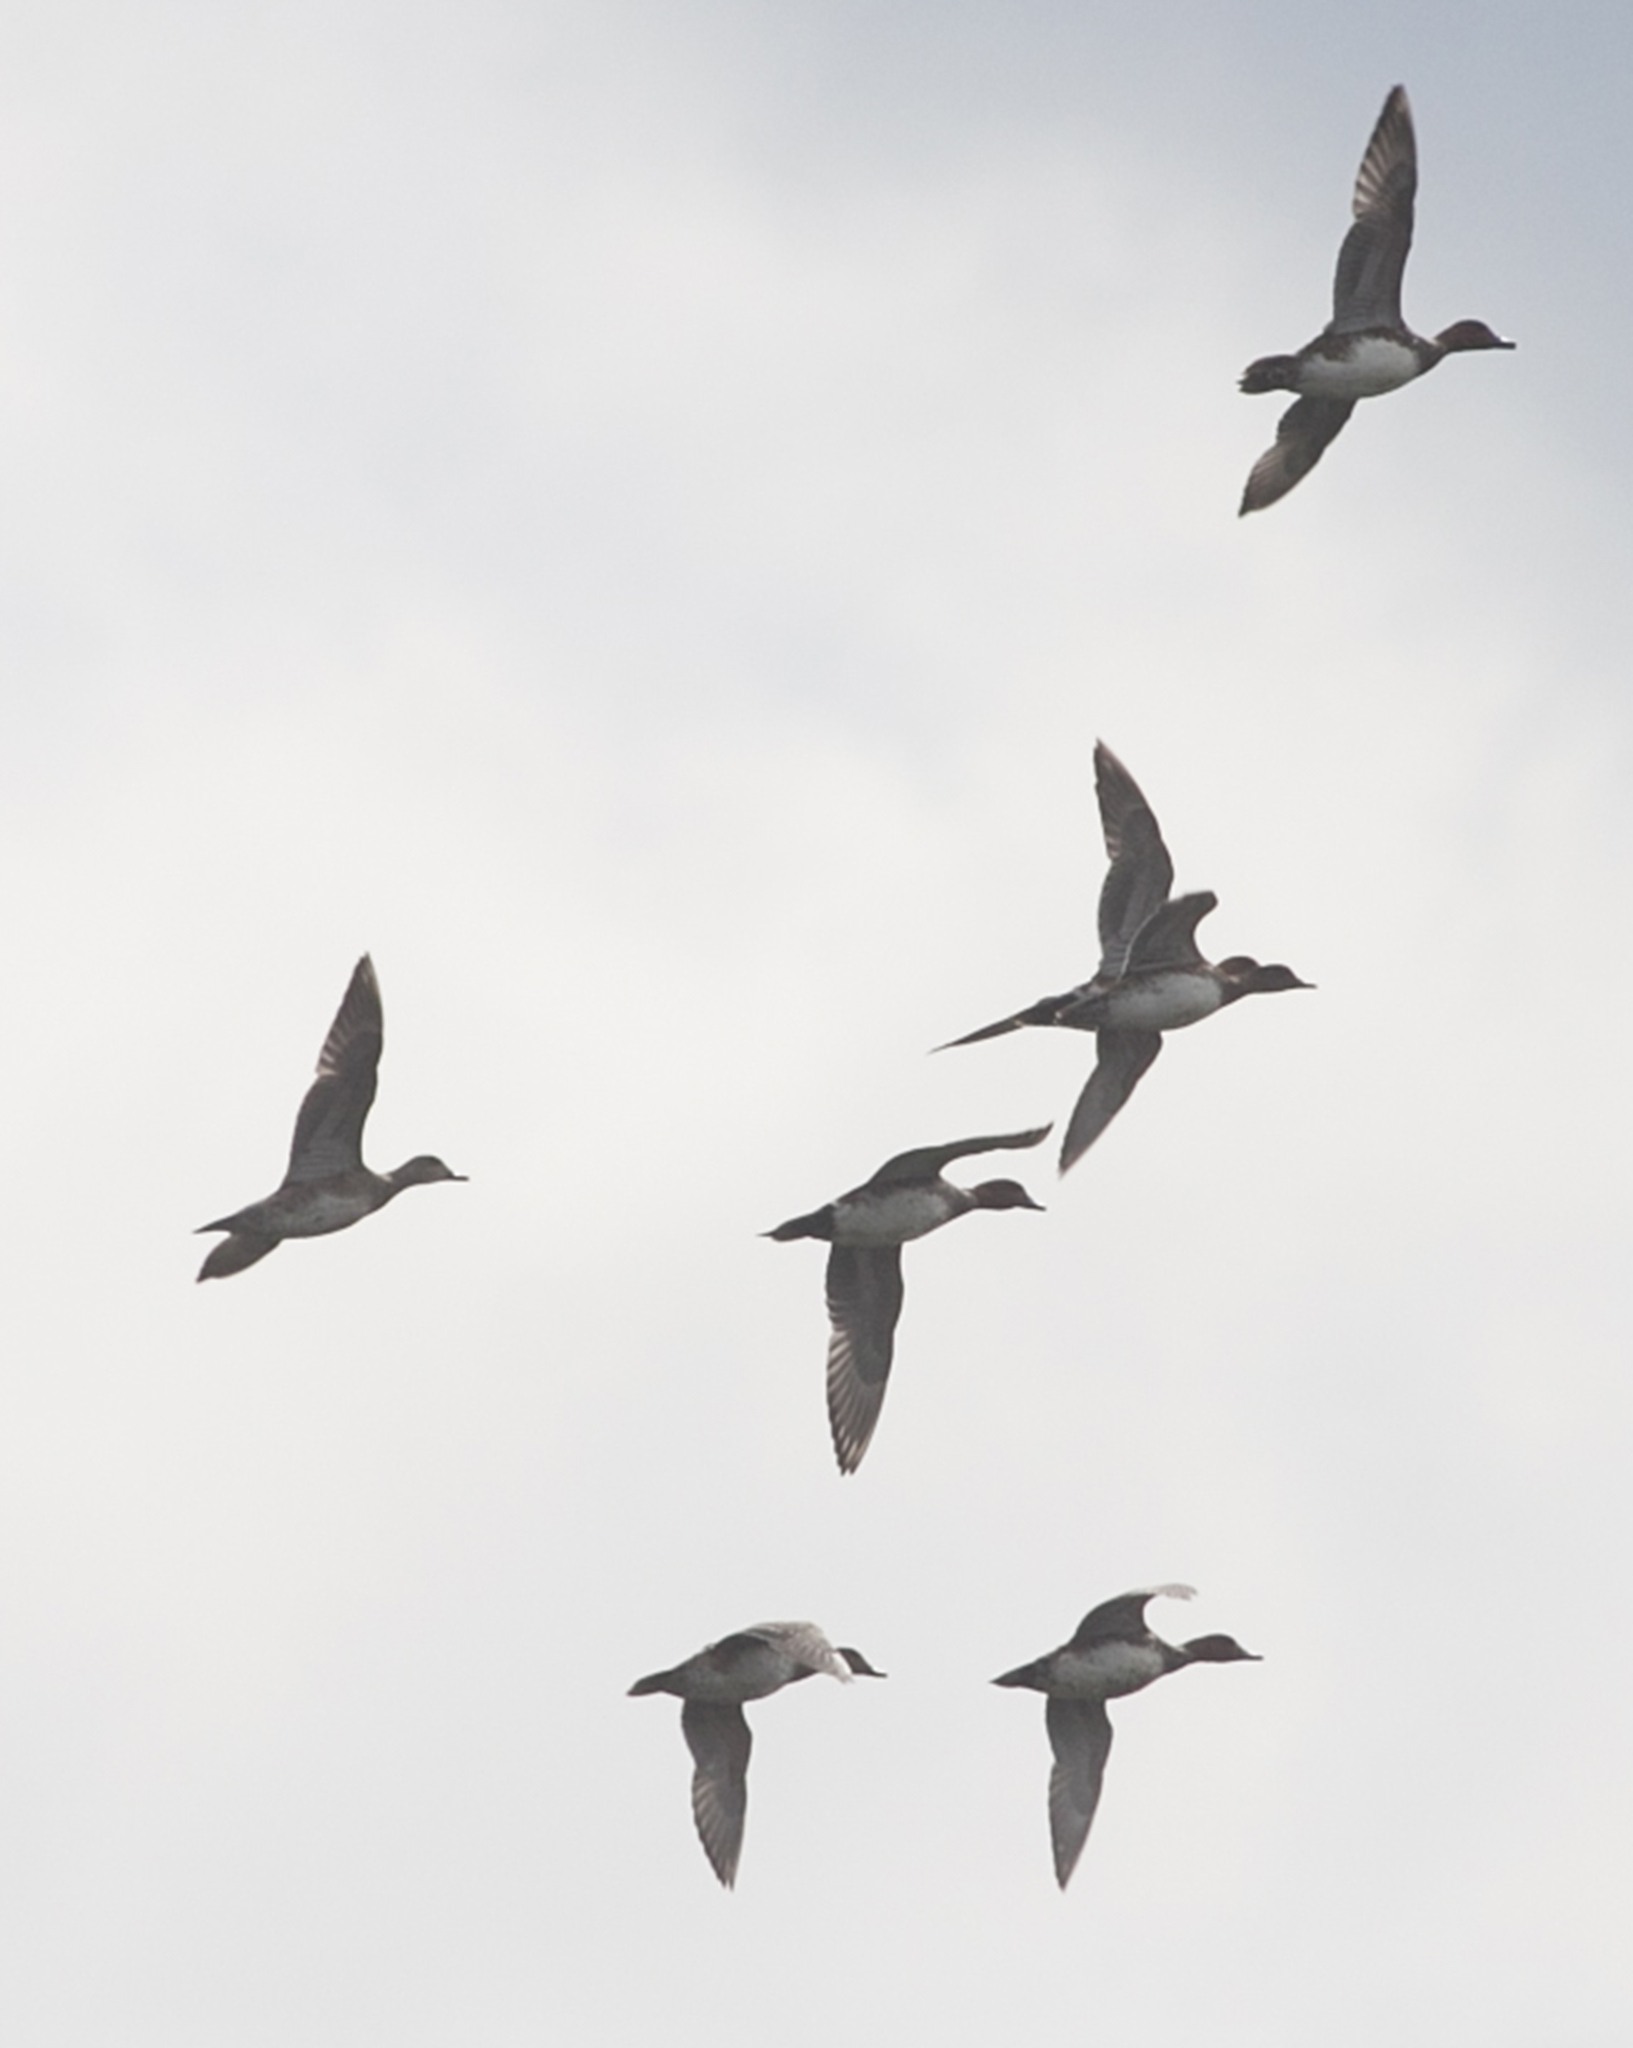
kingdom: Animalia
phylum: Chordata
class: Aves
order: Anseriformes
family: Anatidae
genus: Mareca
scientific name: Mareca penelope
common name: Eurasian wigeon
